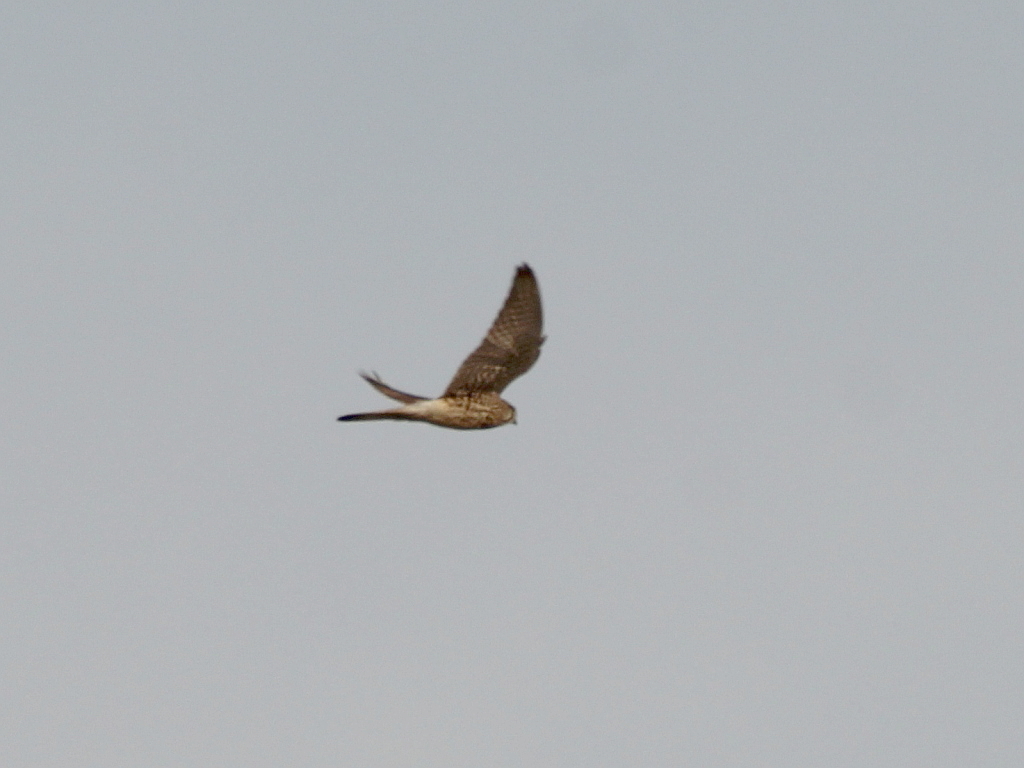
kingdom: Animalia
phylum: Chordata
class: Aves
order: Falconiformes
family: Falconidae
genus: Falco
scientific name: Falco tinnunculus
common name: Common kestrel
